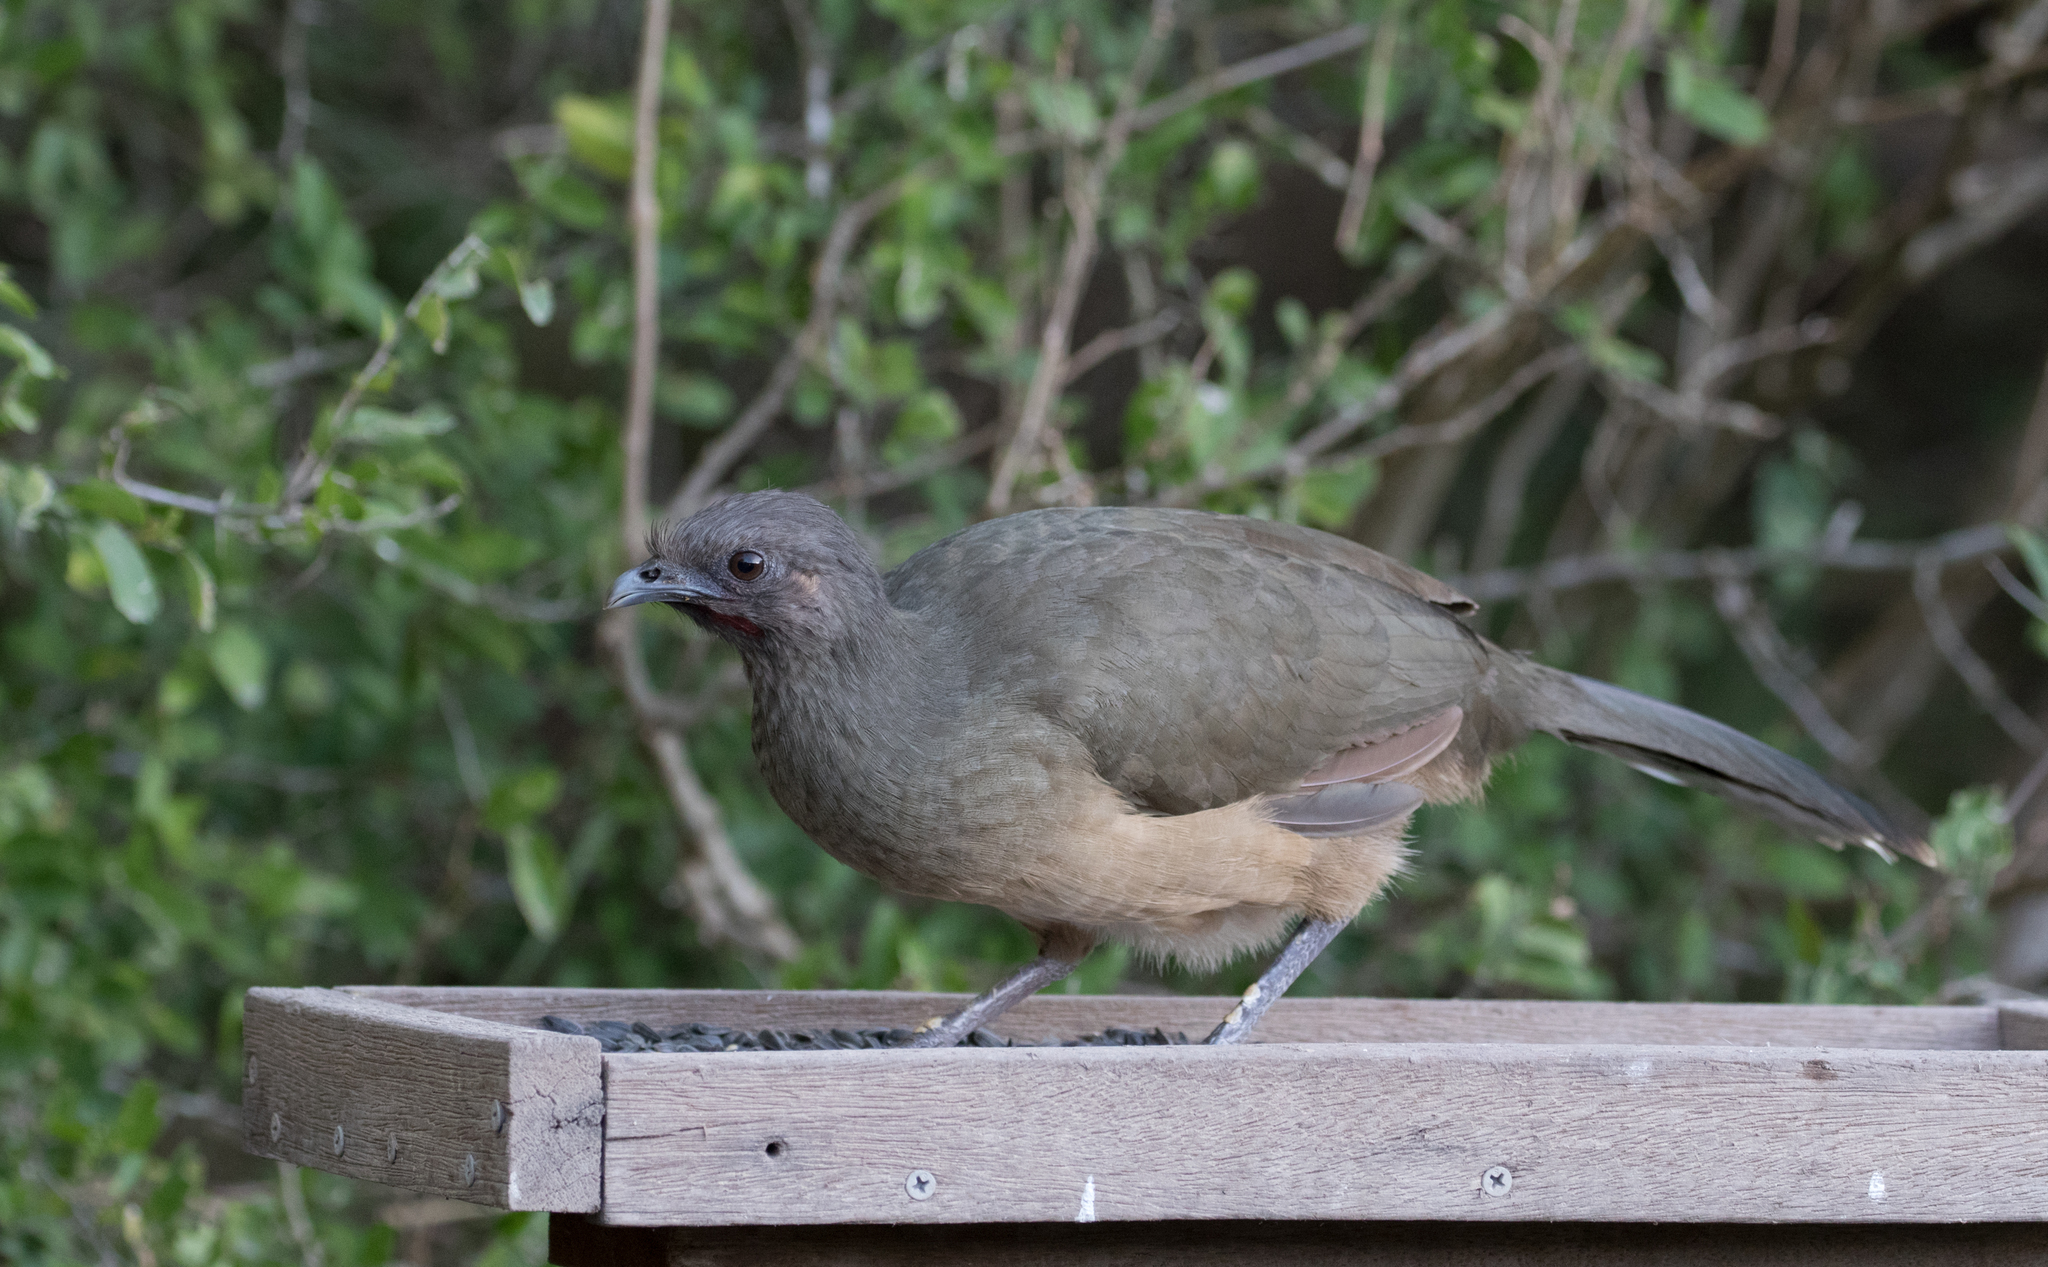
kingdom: Animalia
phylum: Chordata
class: Aves
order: Galliformes
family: Cracidae
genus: Ortalis
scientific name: Ortalis vetula
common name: Plain chachalaca
